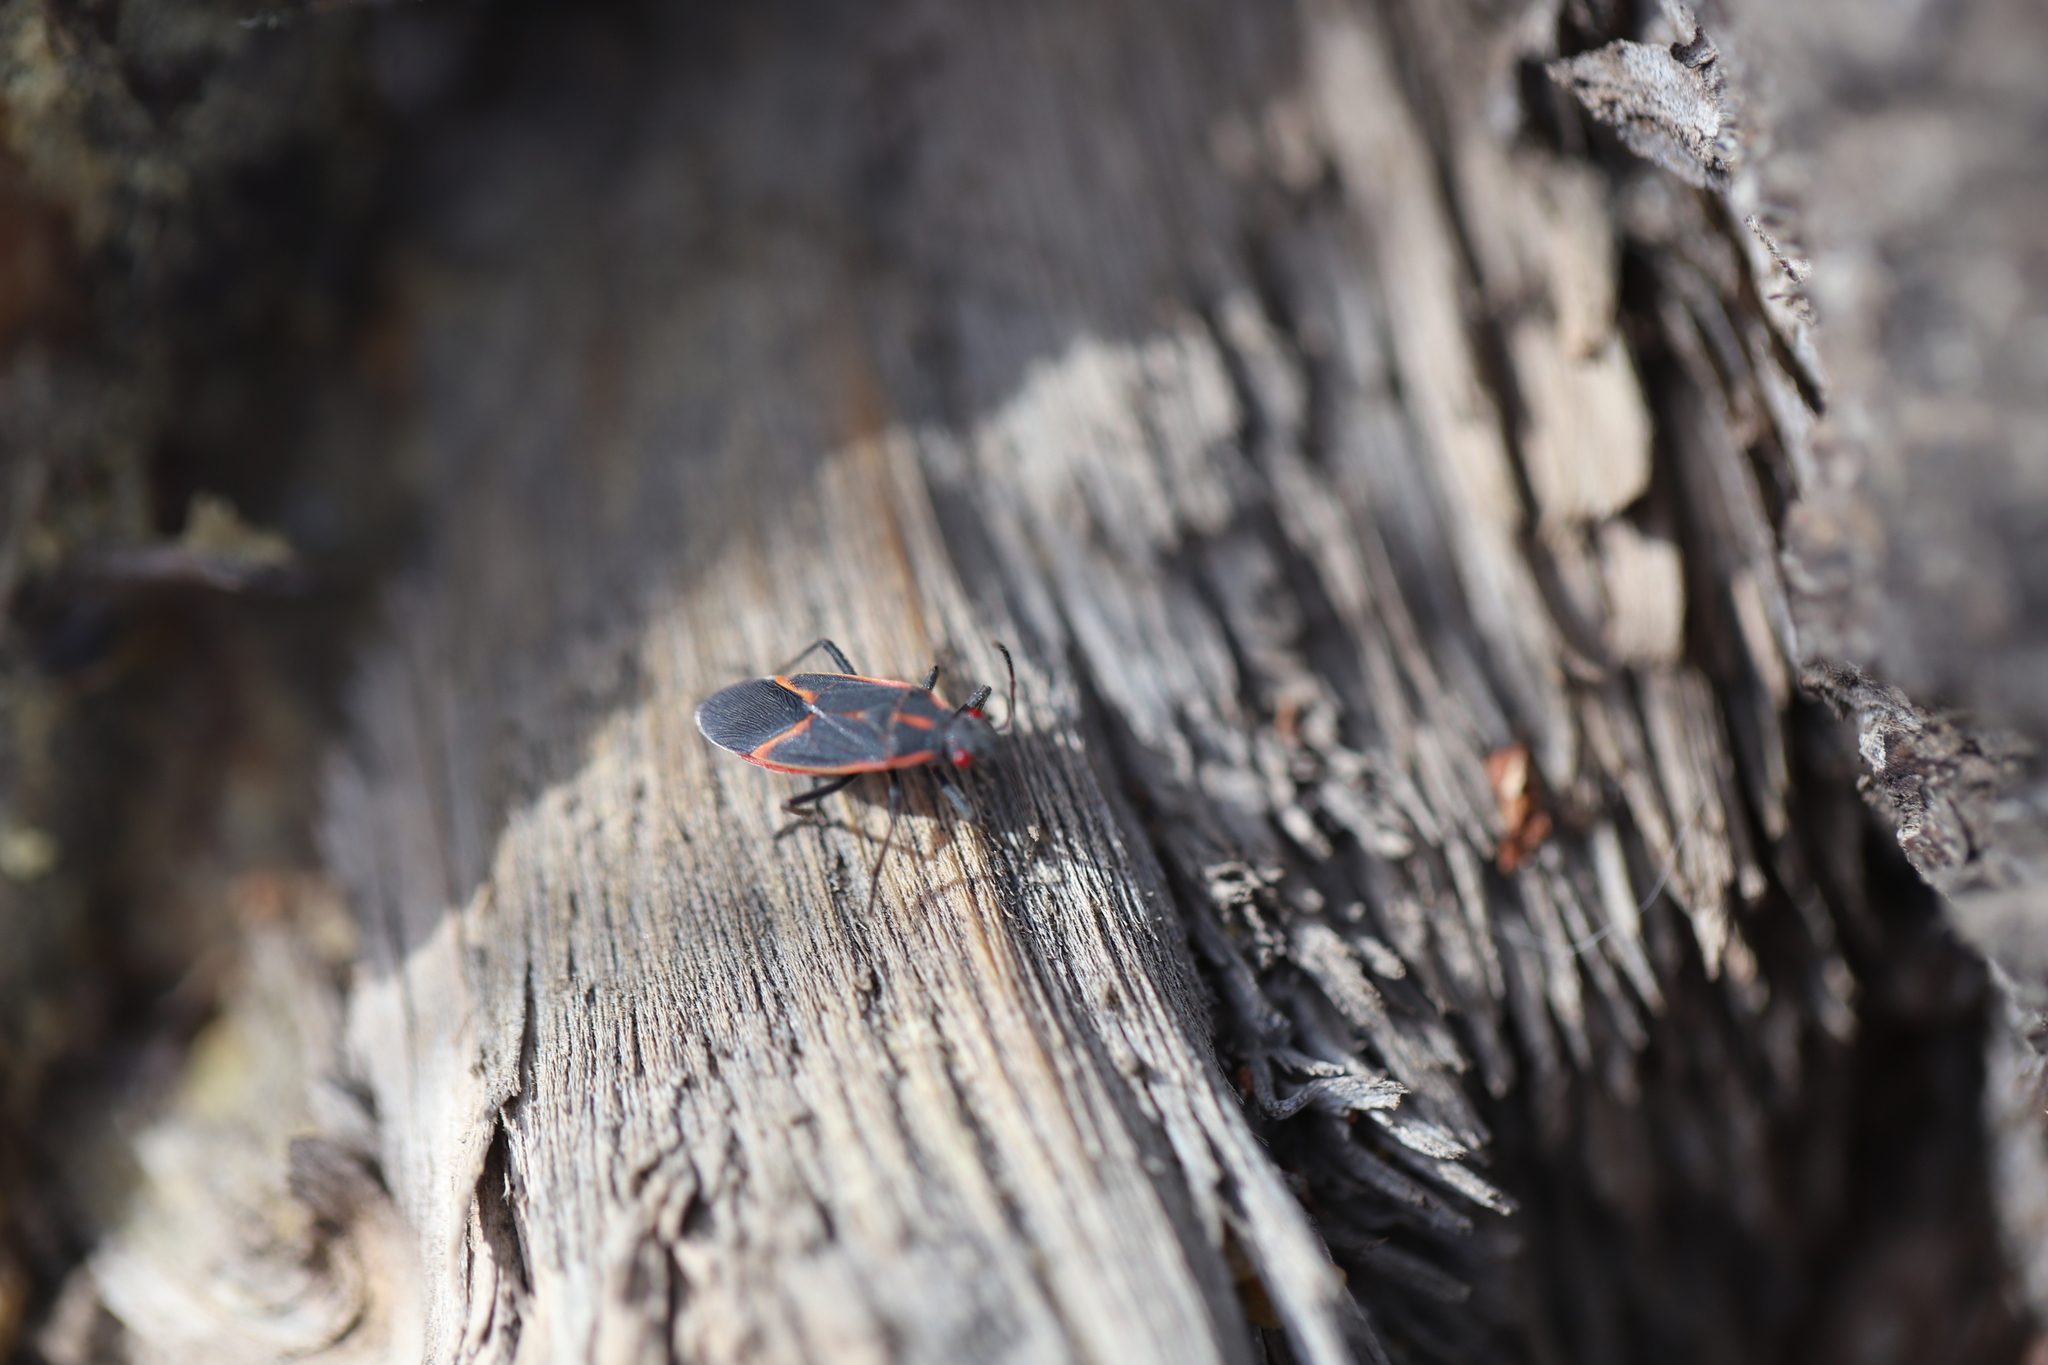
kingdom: Animalia
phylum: Arthropoda
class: Insecta
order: Hemiptera
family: Rhopalidae
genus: Boisea
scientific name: Boisea trivittata
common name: Boxelder bug
